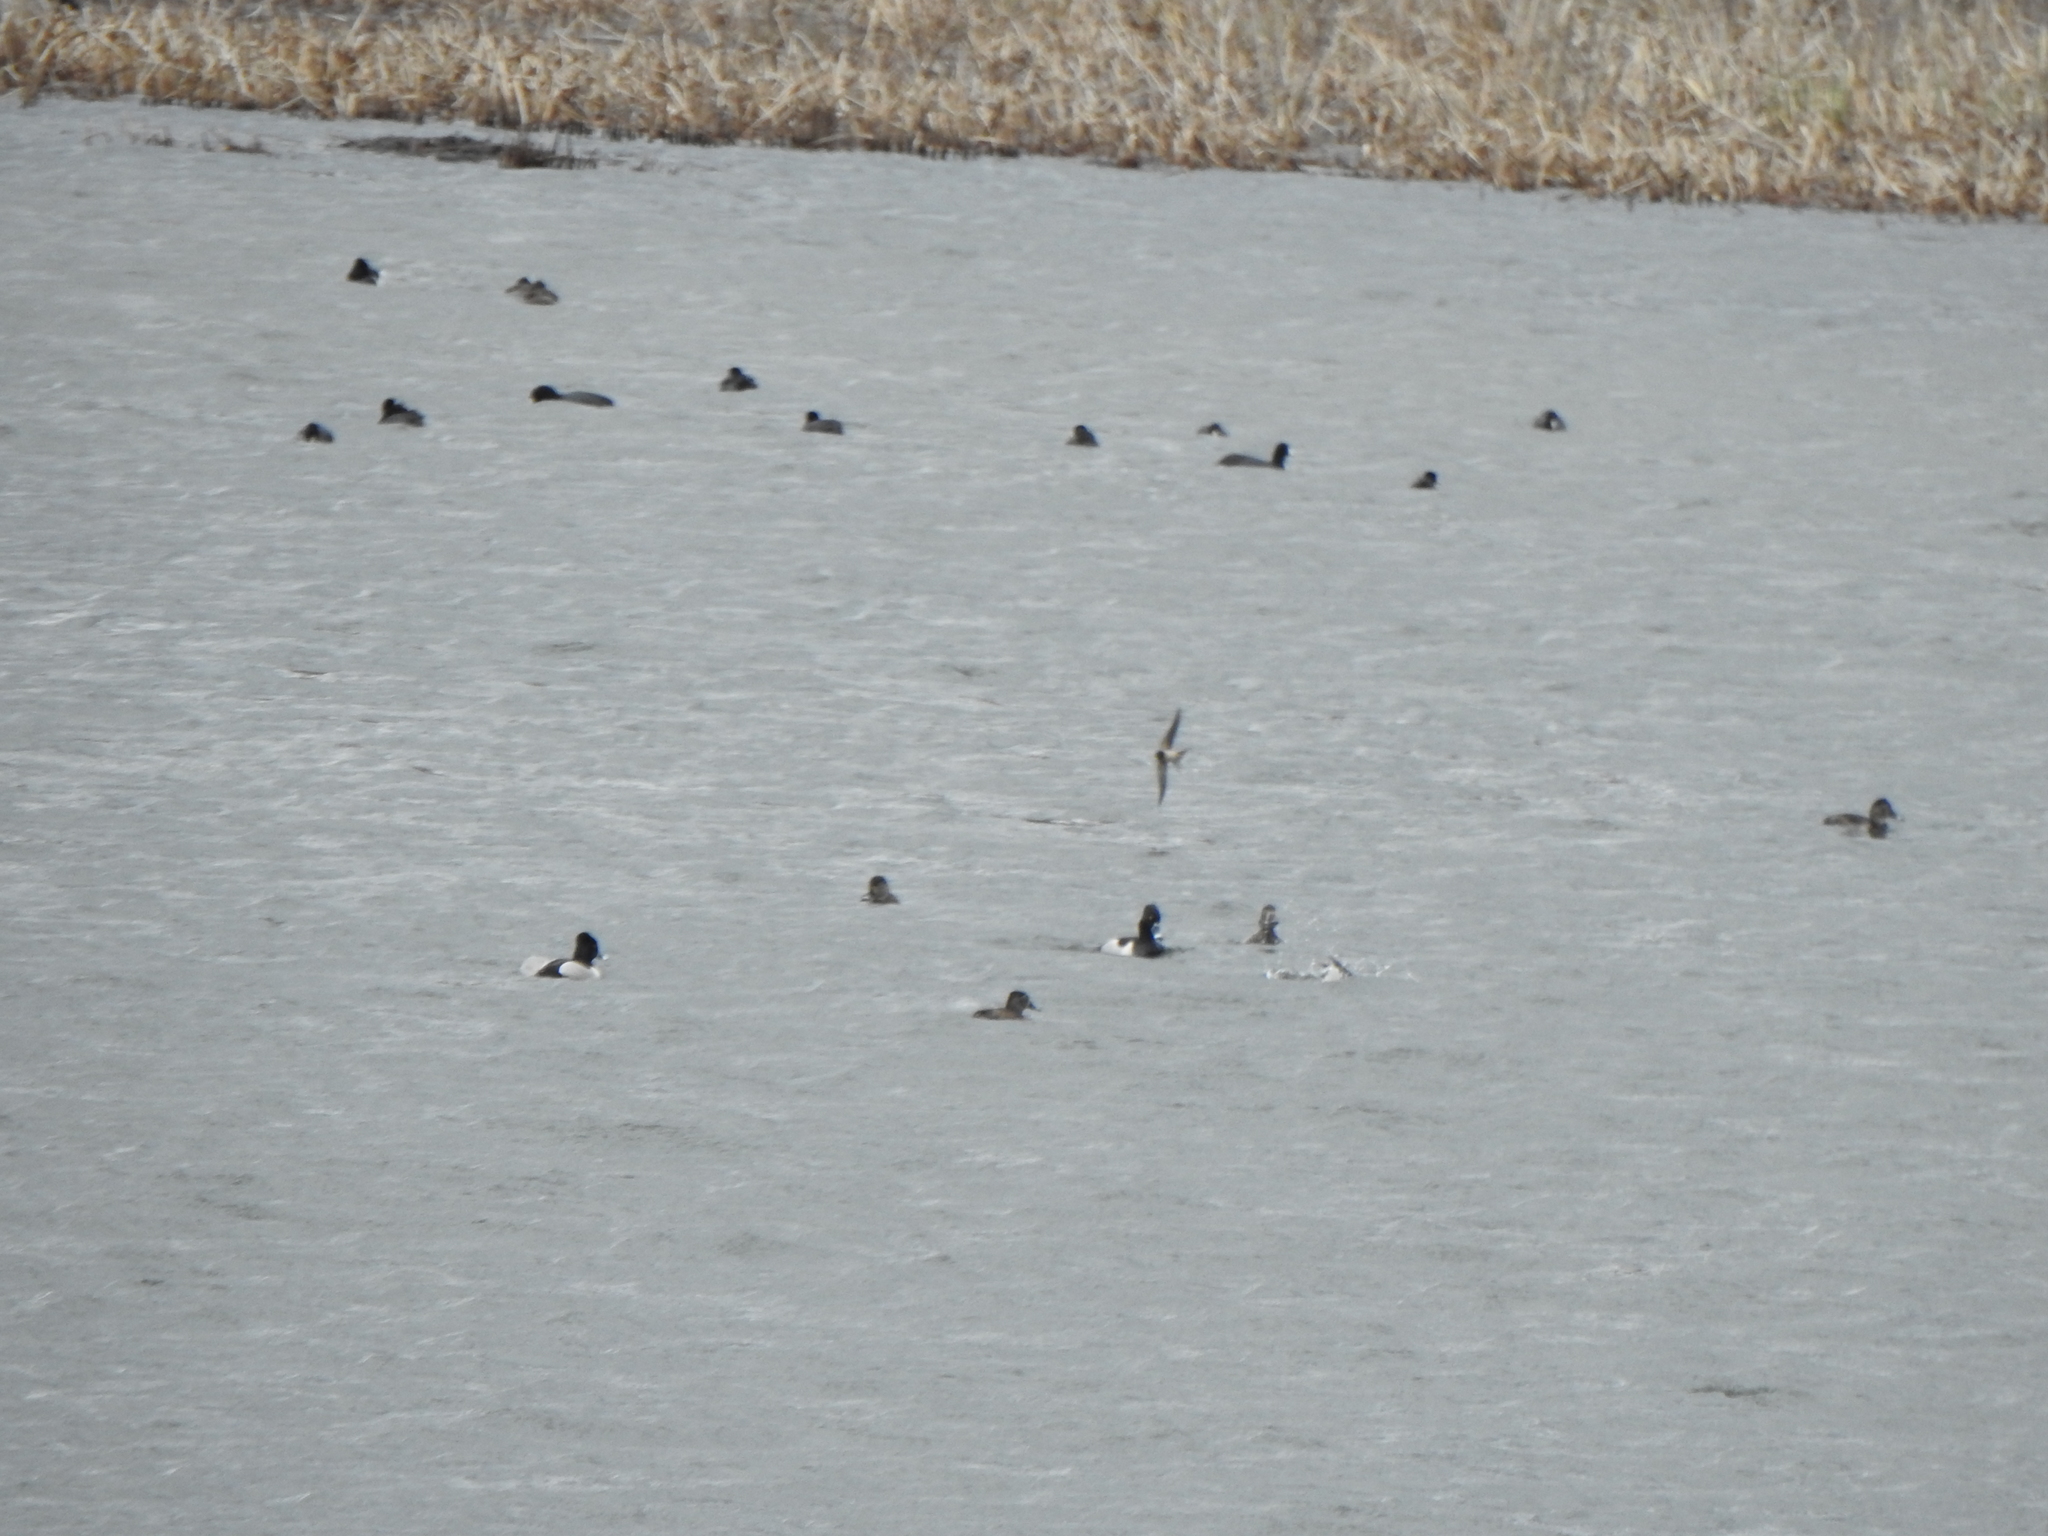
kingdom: Animalia
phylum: Chordata
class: Aves
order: Anseriformes
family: Anatidae
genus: Aythya
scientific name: Aythya collaris
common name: Ring-necked duck
